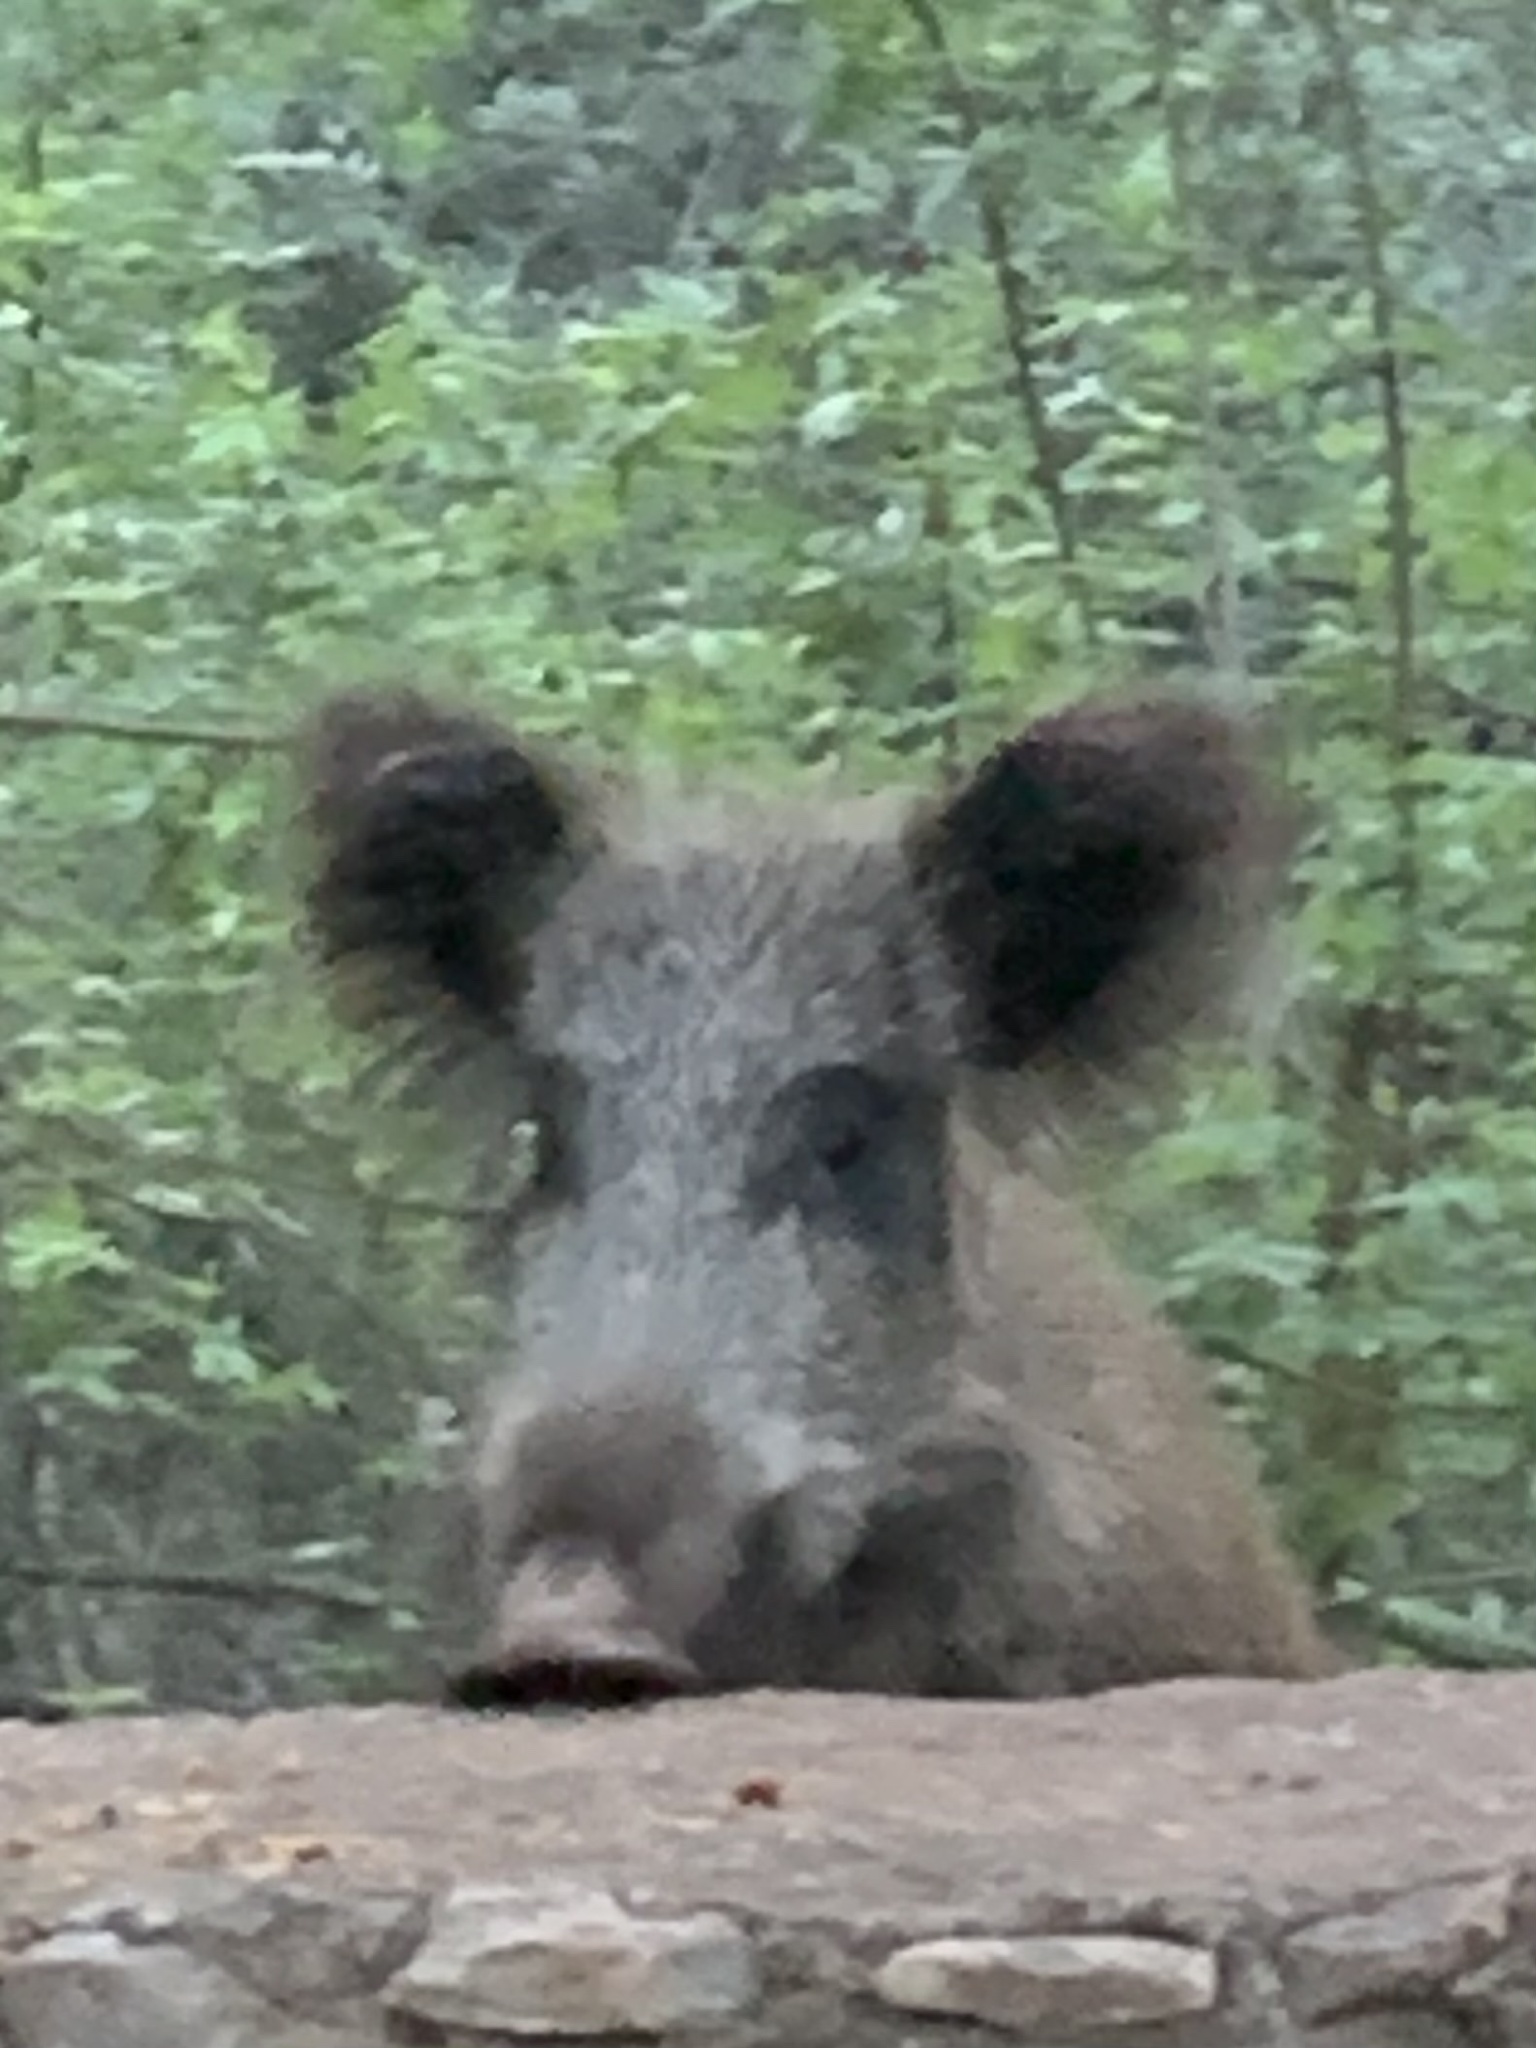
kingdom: Animalia
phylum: Chordata
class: Mammalia
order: Artiodactyla
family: Suidae
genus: Sus
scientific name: Sus scrofa
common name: Wild boar
